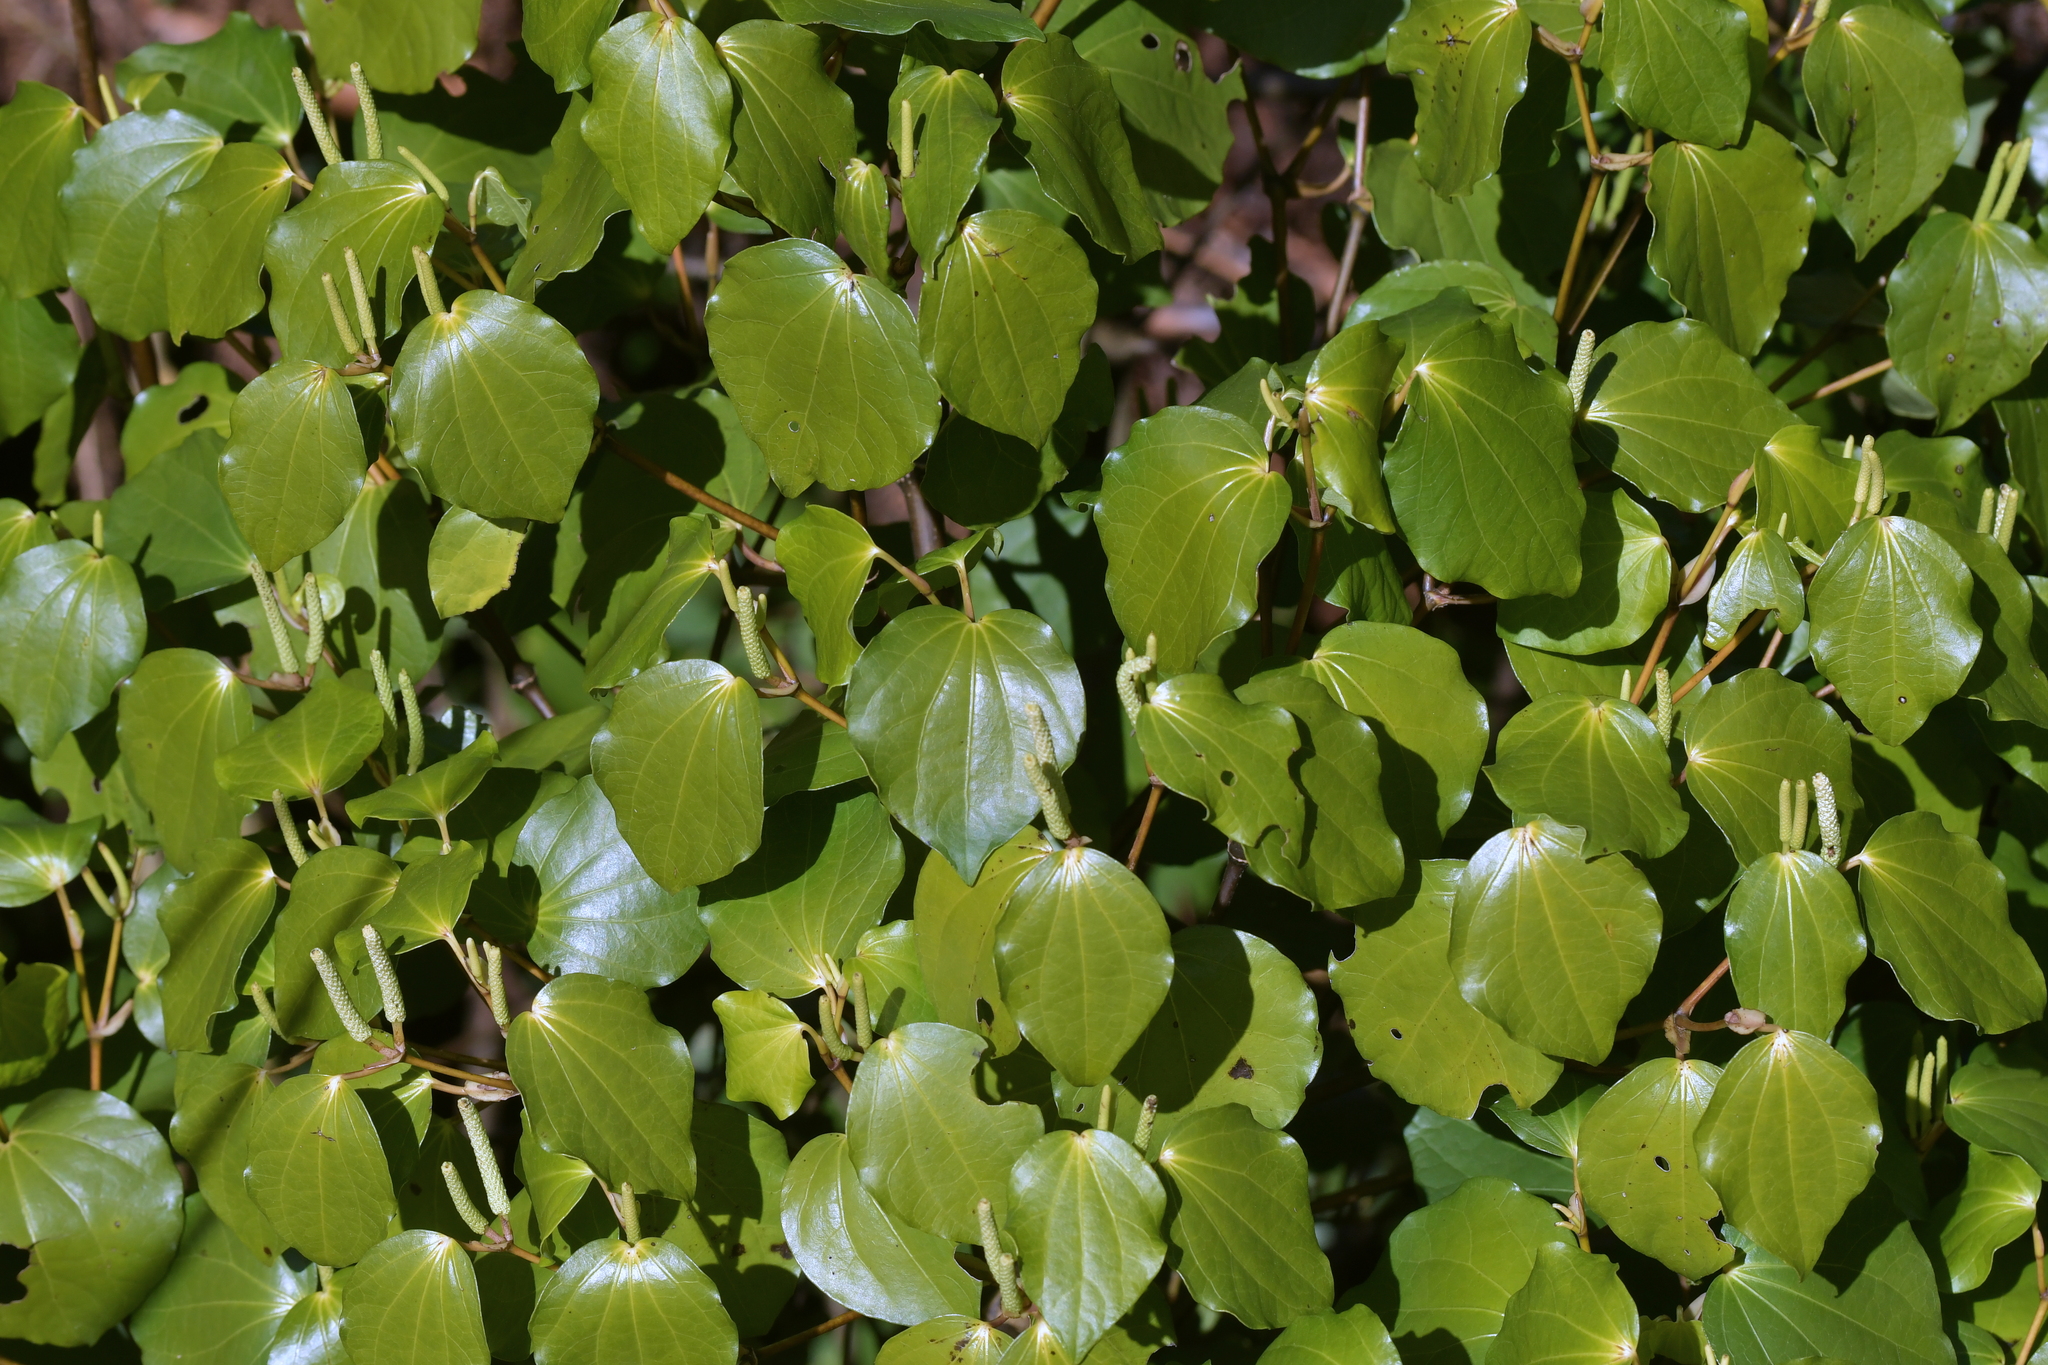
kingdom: Plantae
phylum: Tracheophyta
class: Magnoliopsida
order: Piperales
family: Piperaceae
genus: Macropiper
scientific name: Macropiper excelsum
